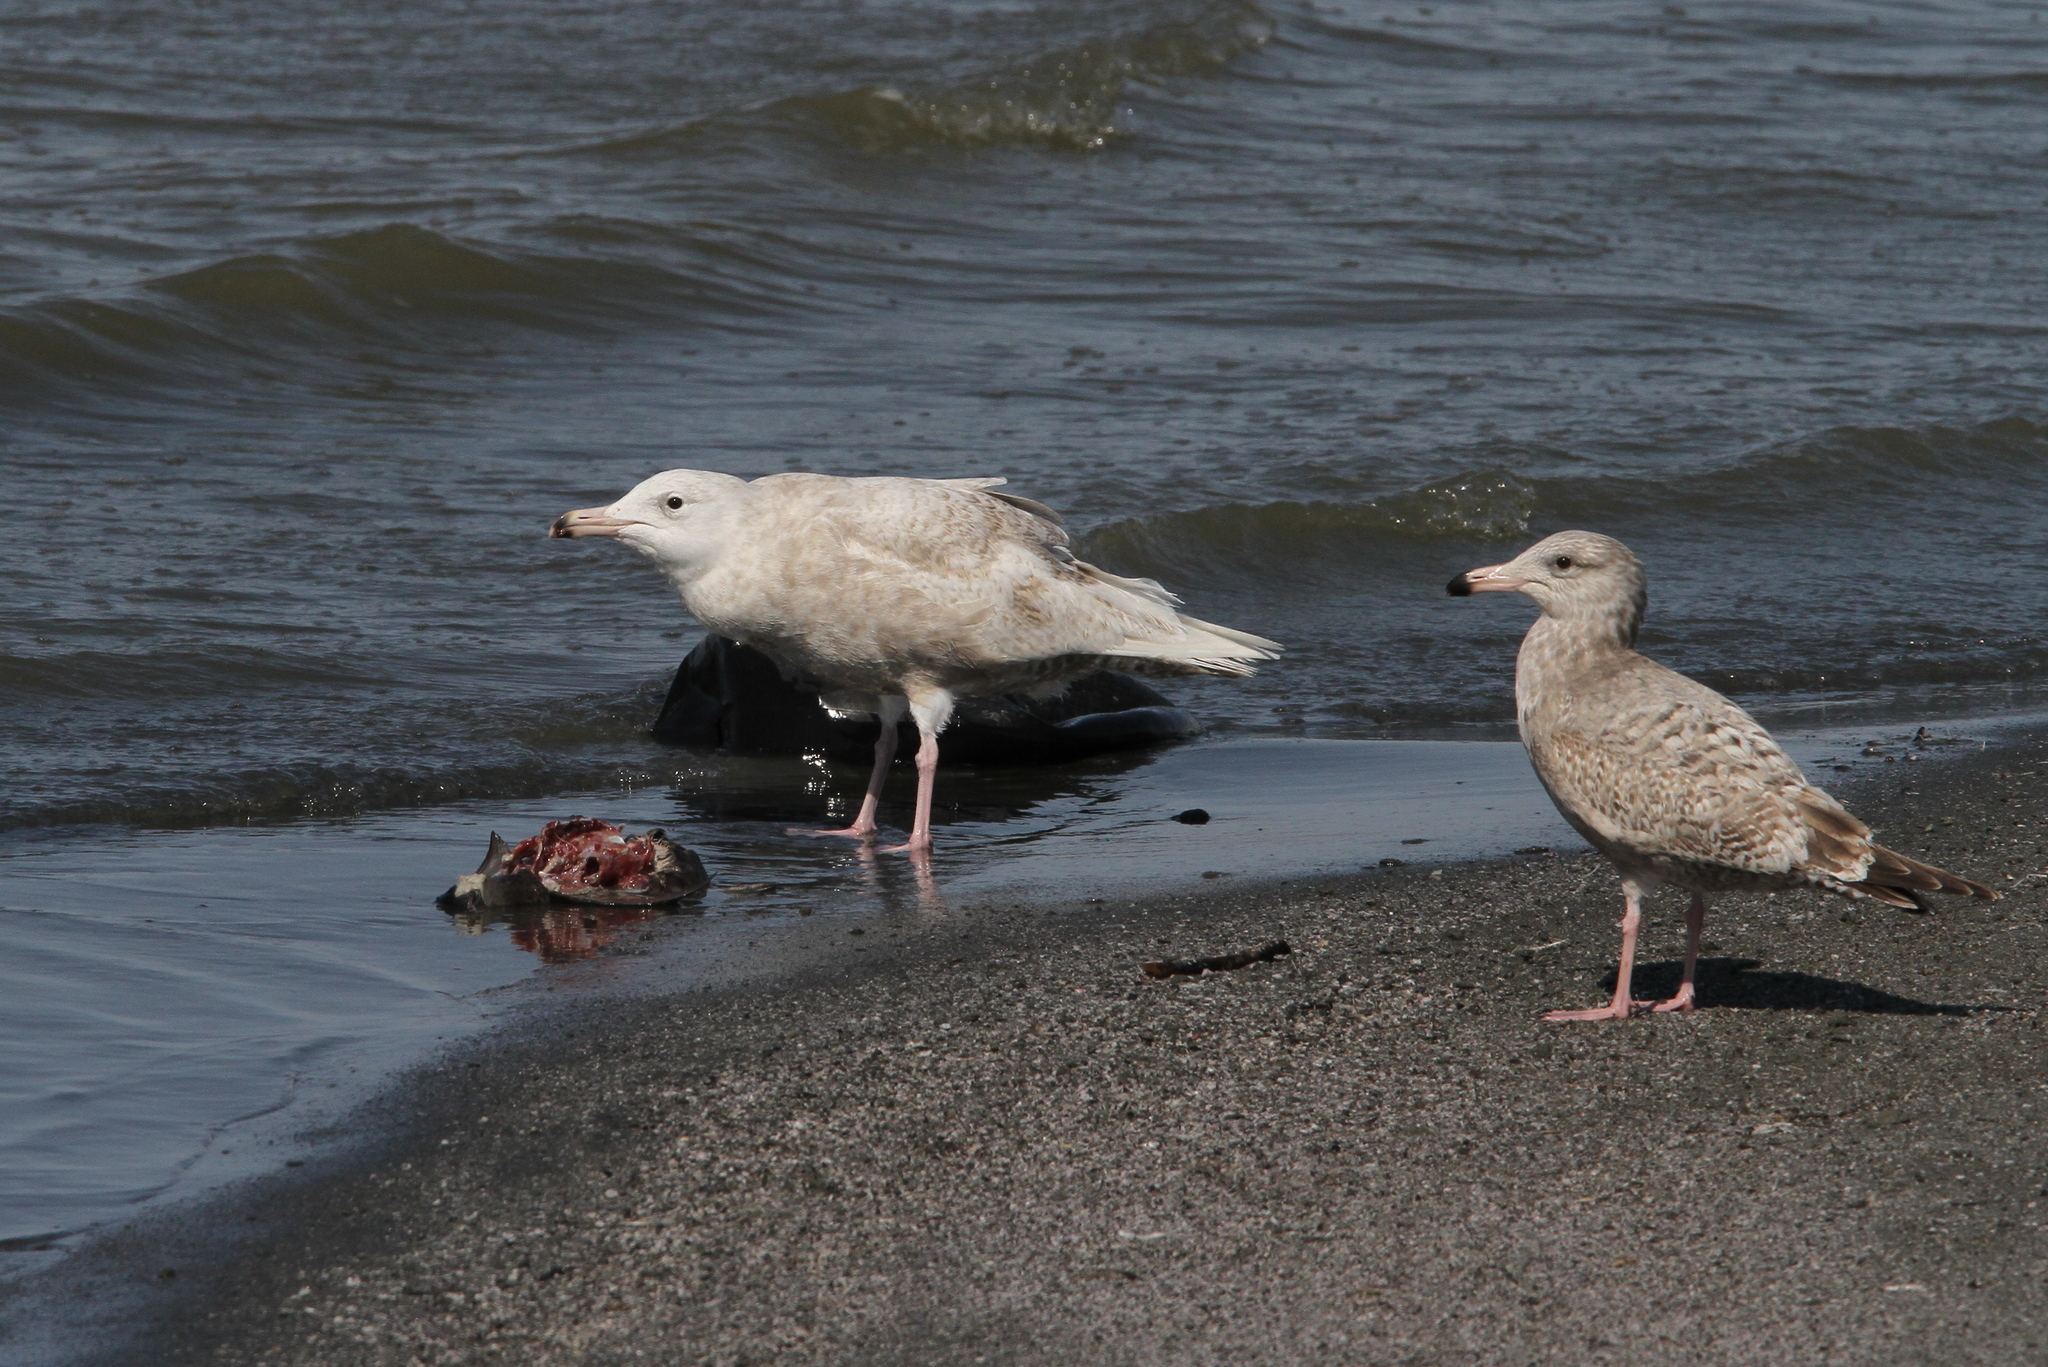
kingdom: Animalia
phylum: Chordata
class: Aves
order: Charadriiformes
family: Laridae
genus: Larus
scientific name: Larus hyperboreus
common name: Glaucous gull
